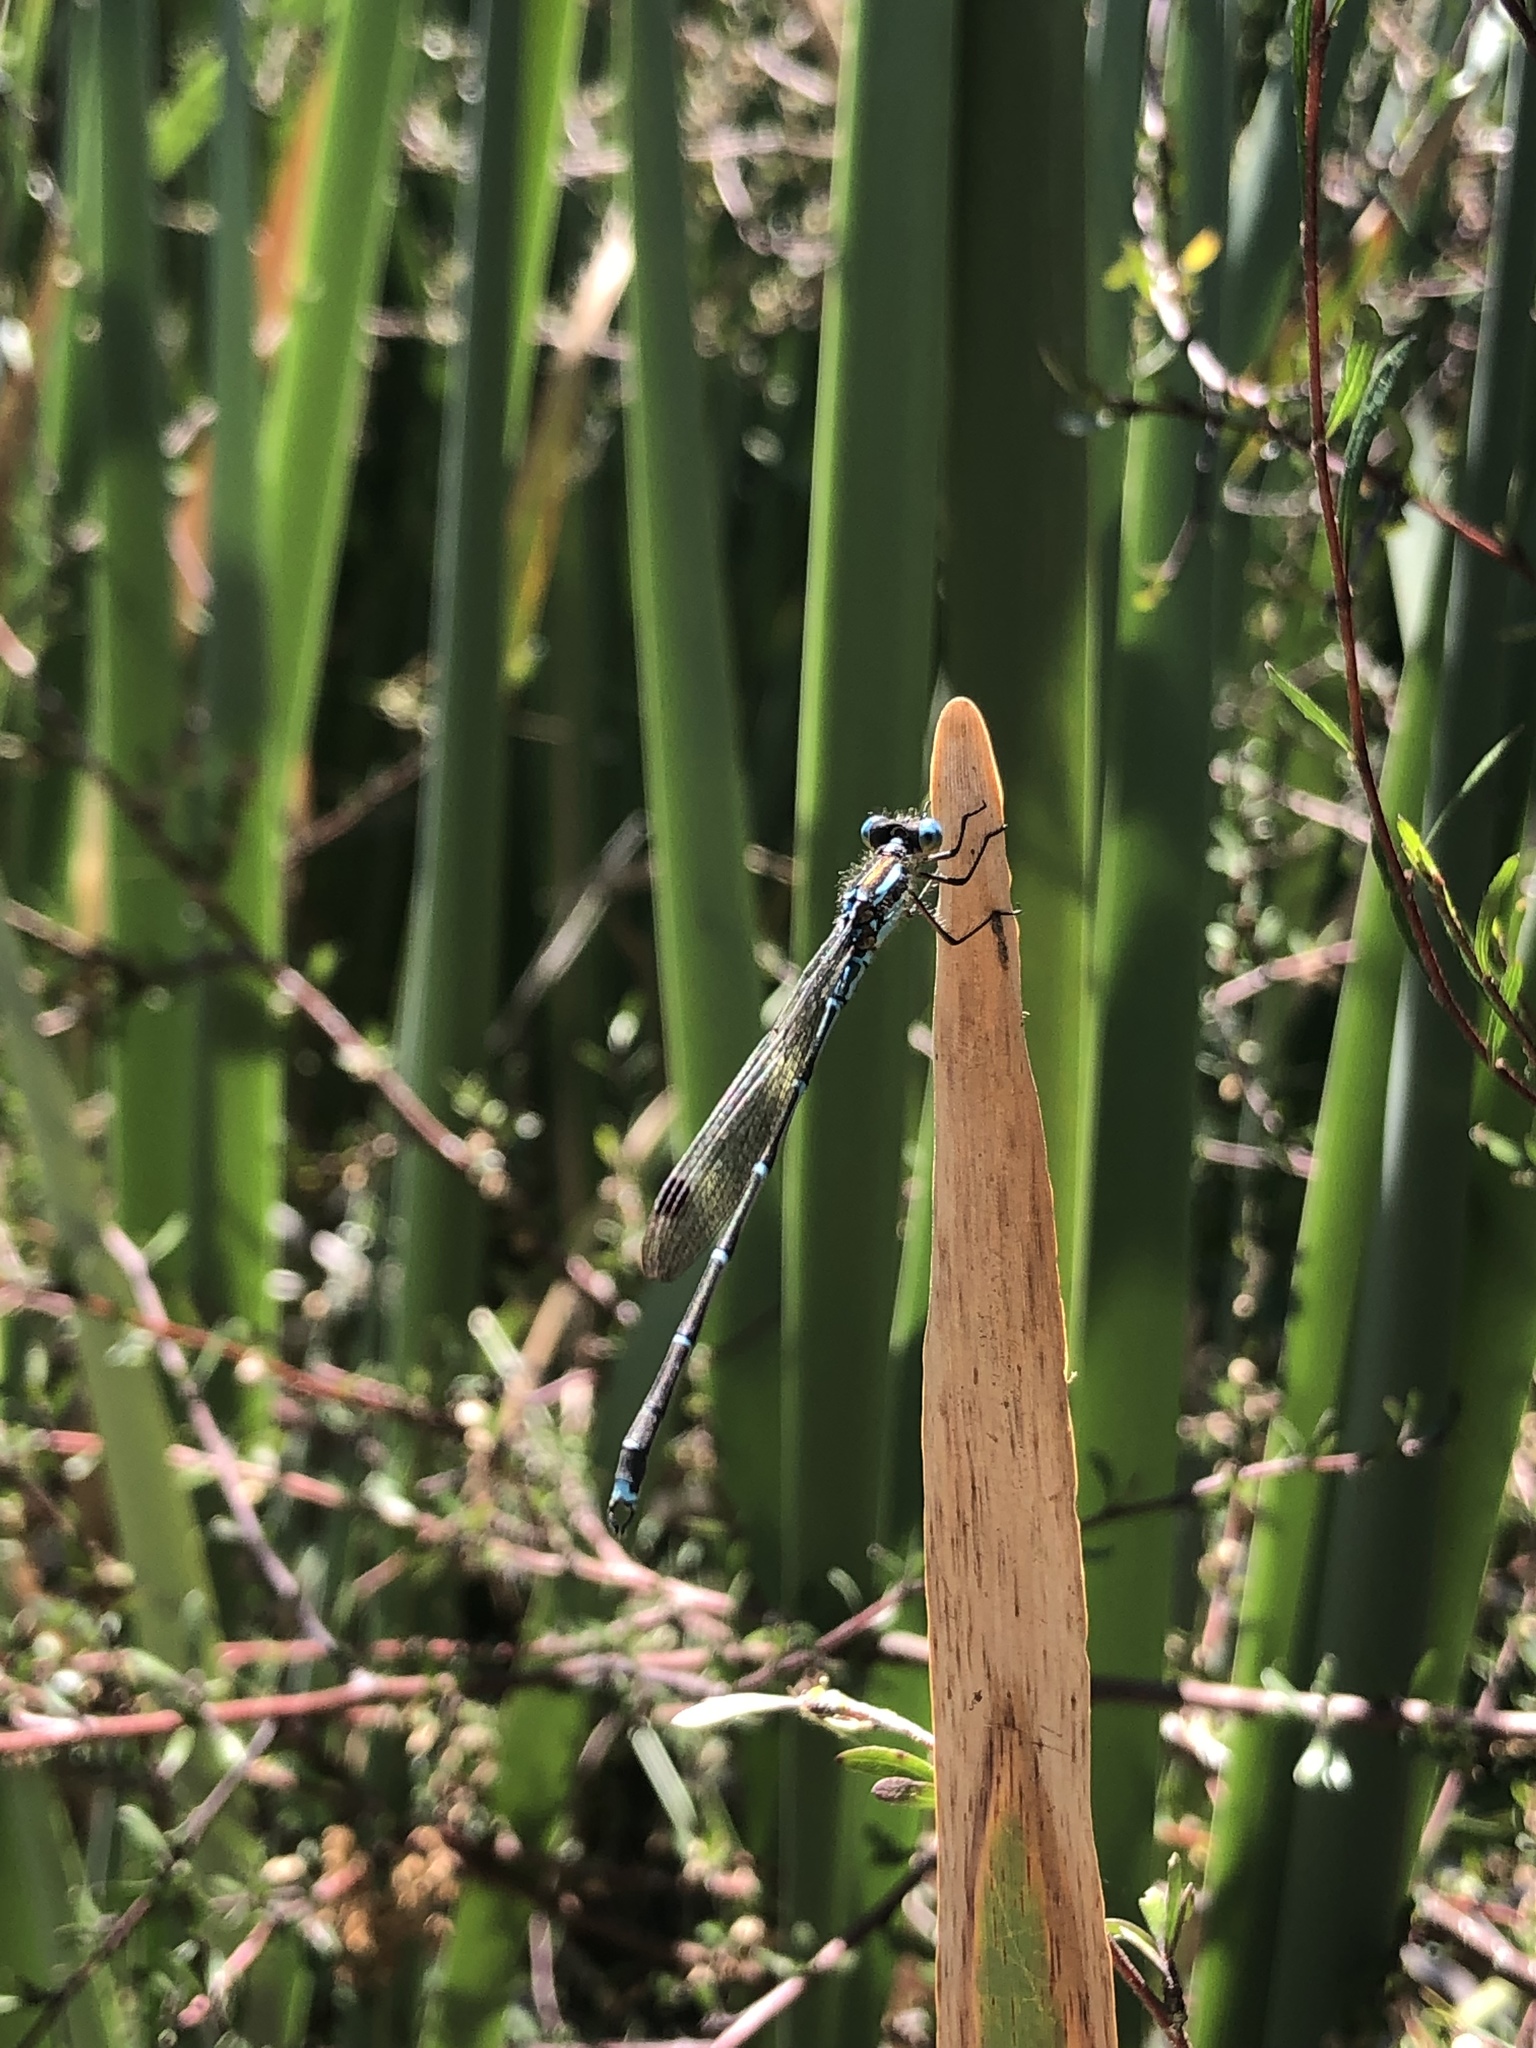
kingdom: Animalia
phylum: Arthropoda
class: Insecta
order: Odonata
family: Lestidae
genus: Austrolestes
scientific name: Austrolestes colensonis
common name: Blue damselfly
